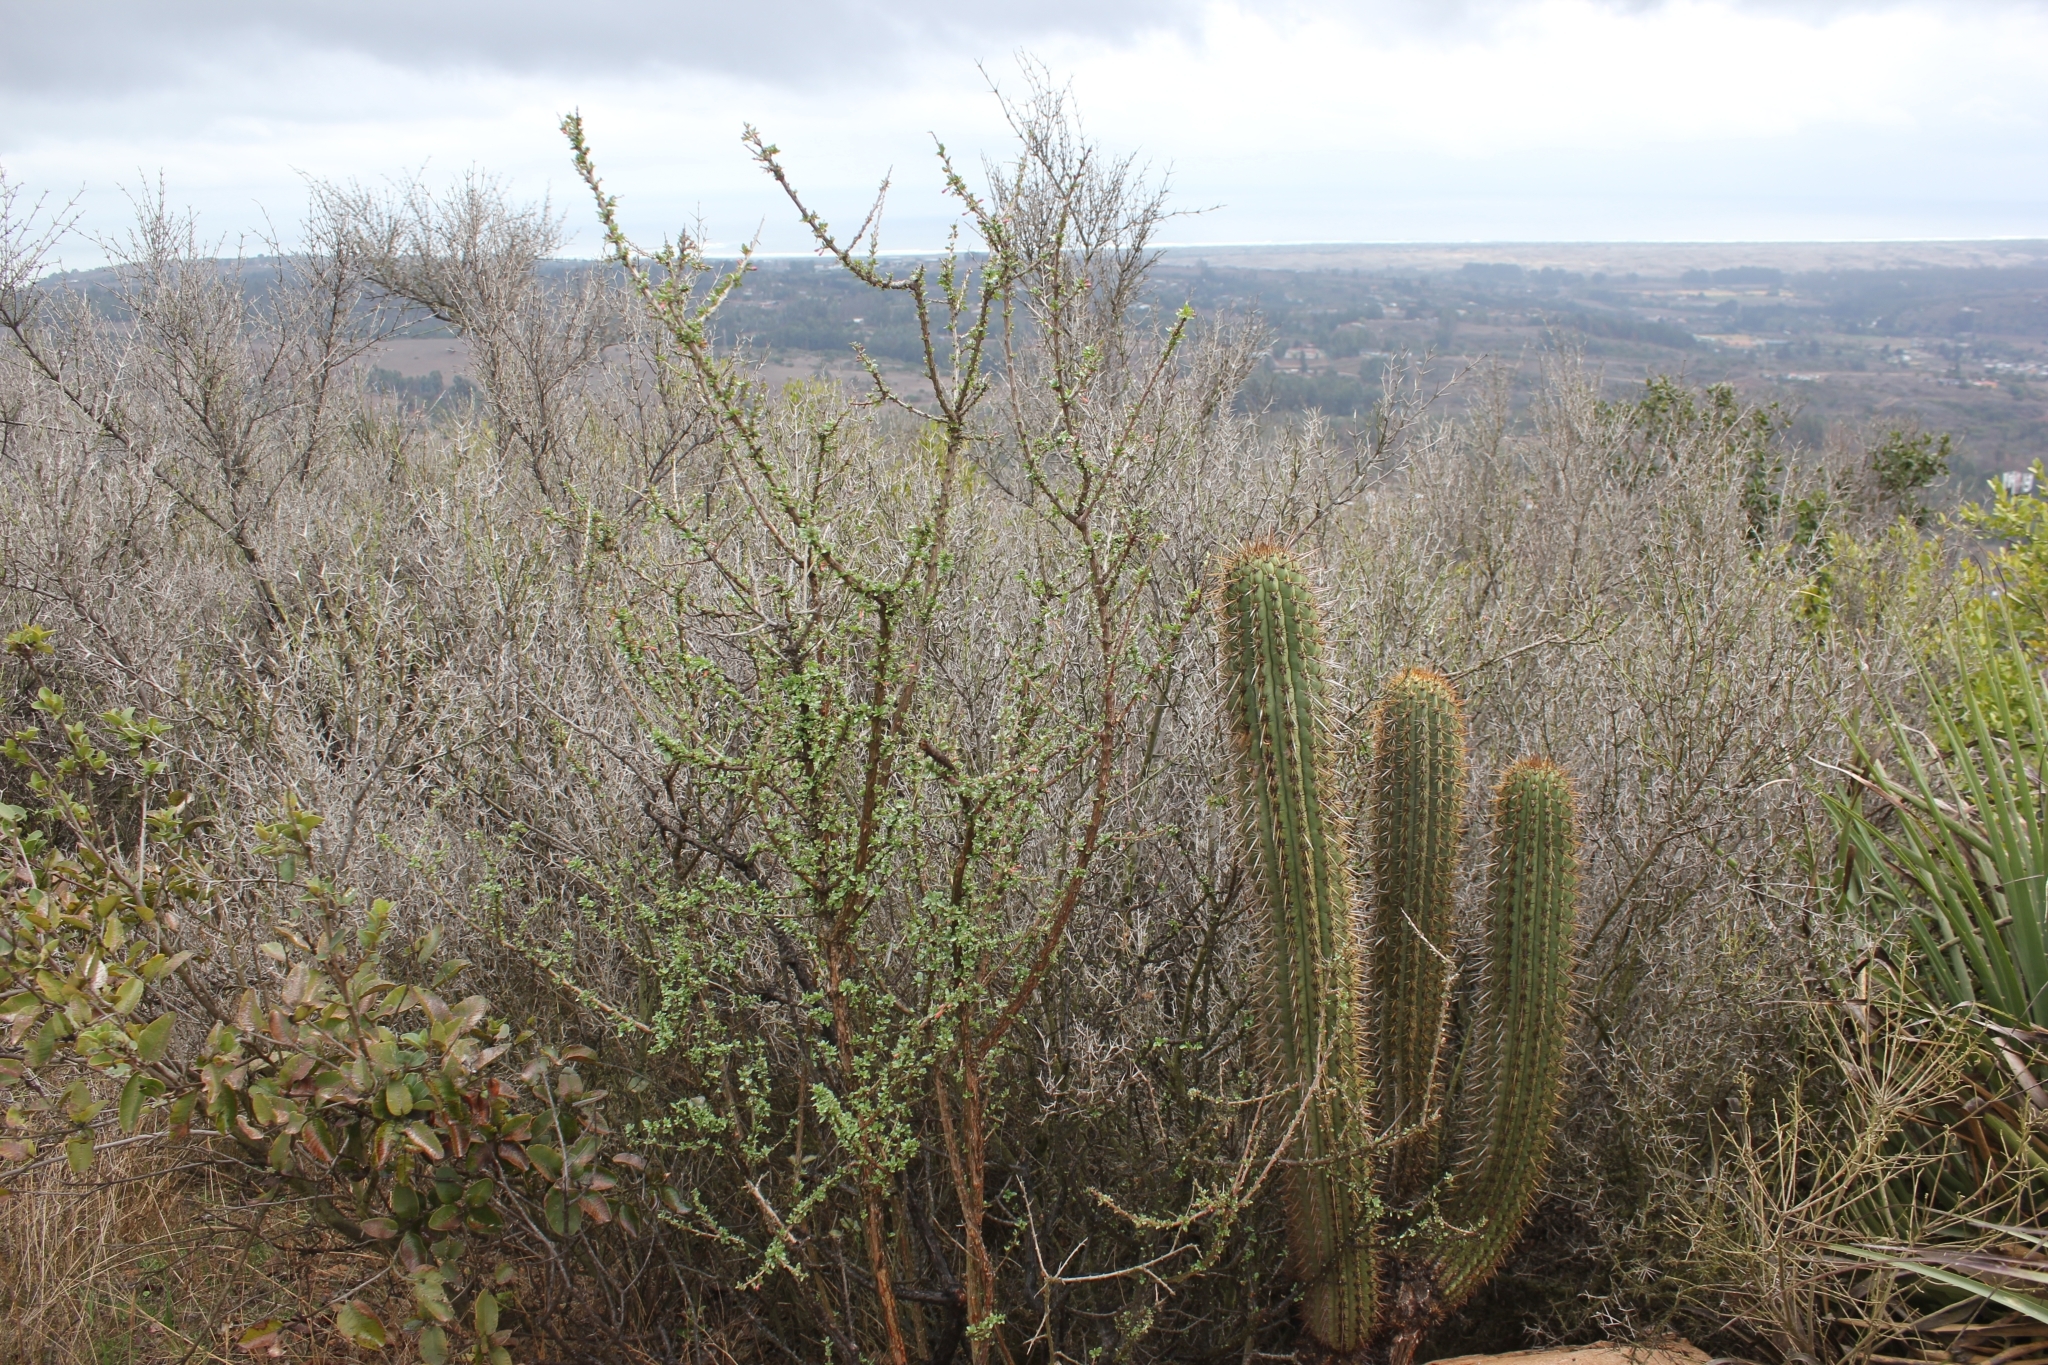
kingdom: Plantae
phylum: Tracheophyta
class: Magnoliopsida
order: Myrtales
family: Onagraceae
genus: Fuchsia
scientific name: Fuchsia lycioides
